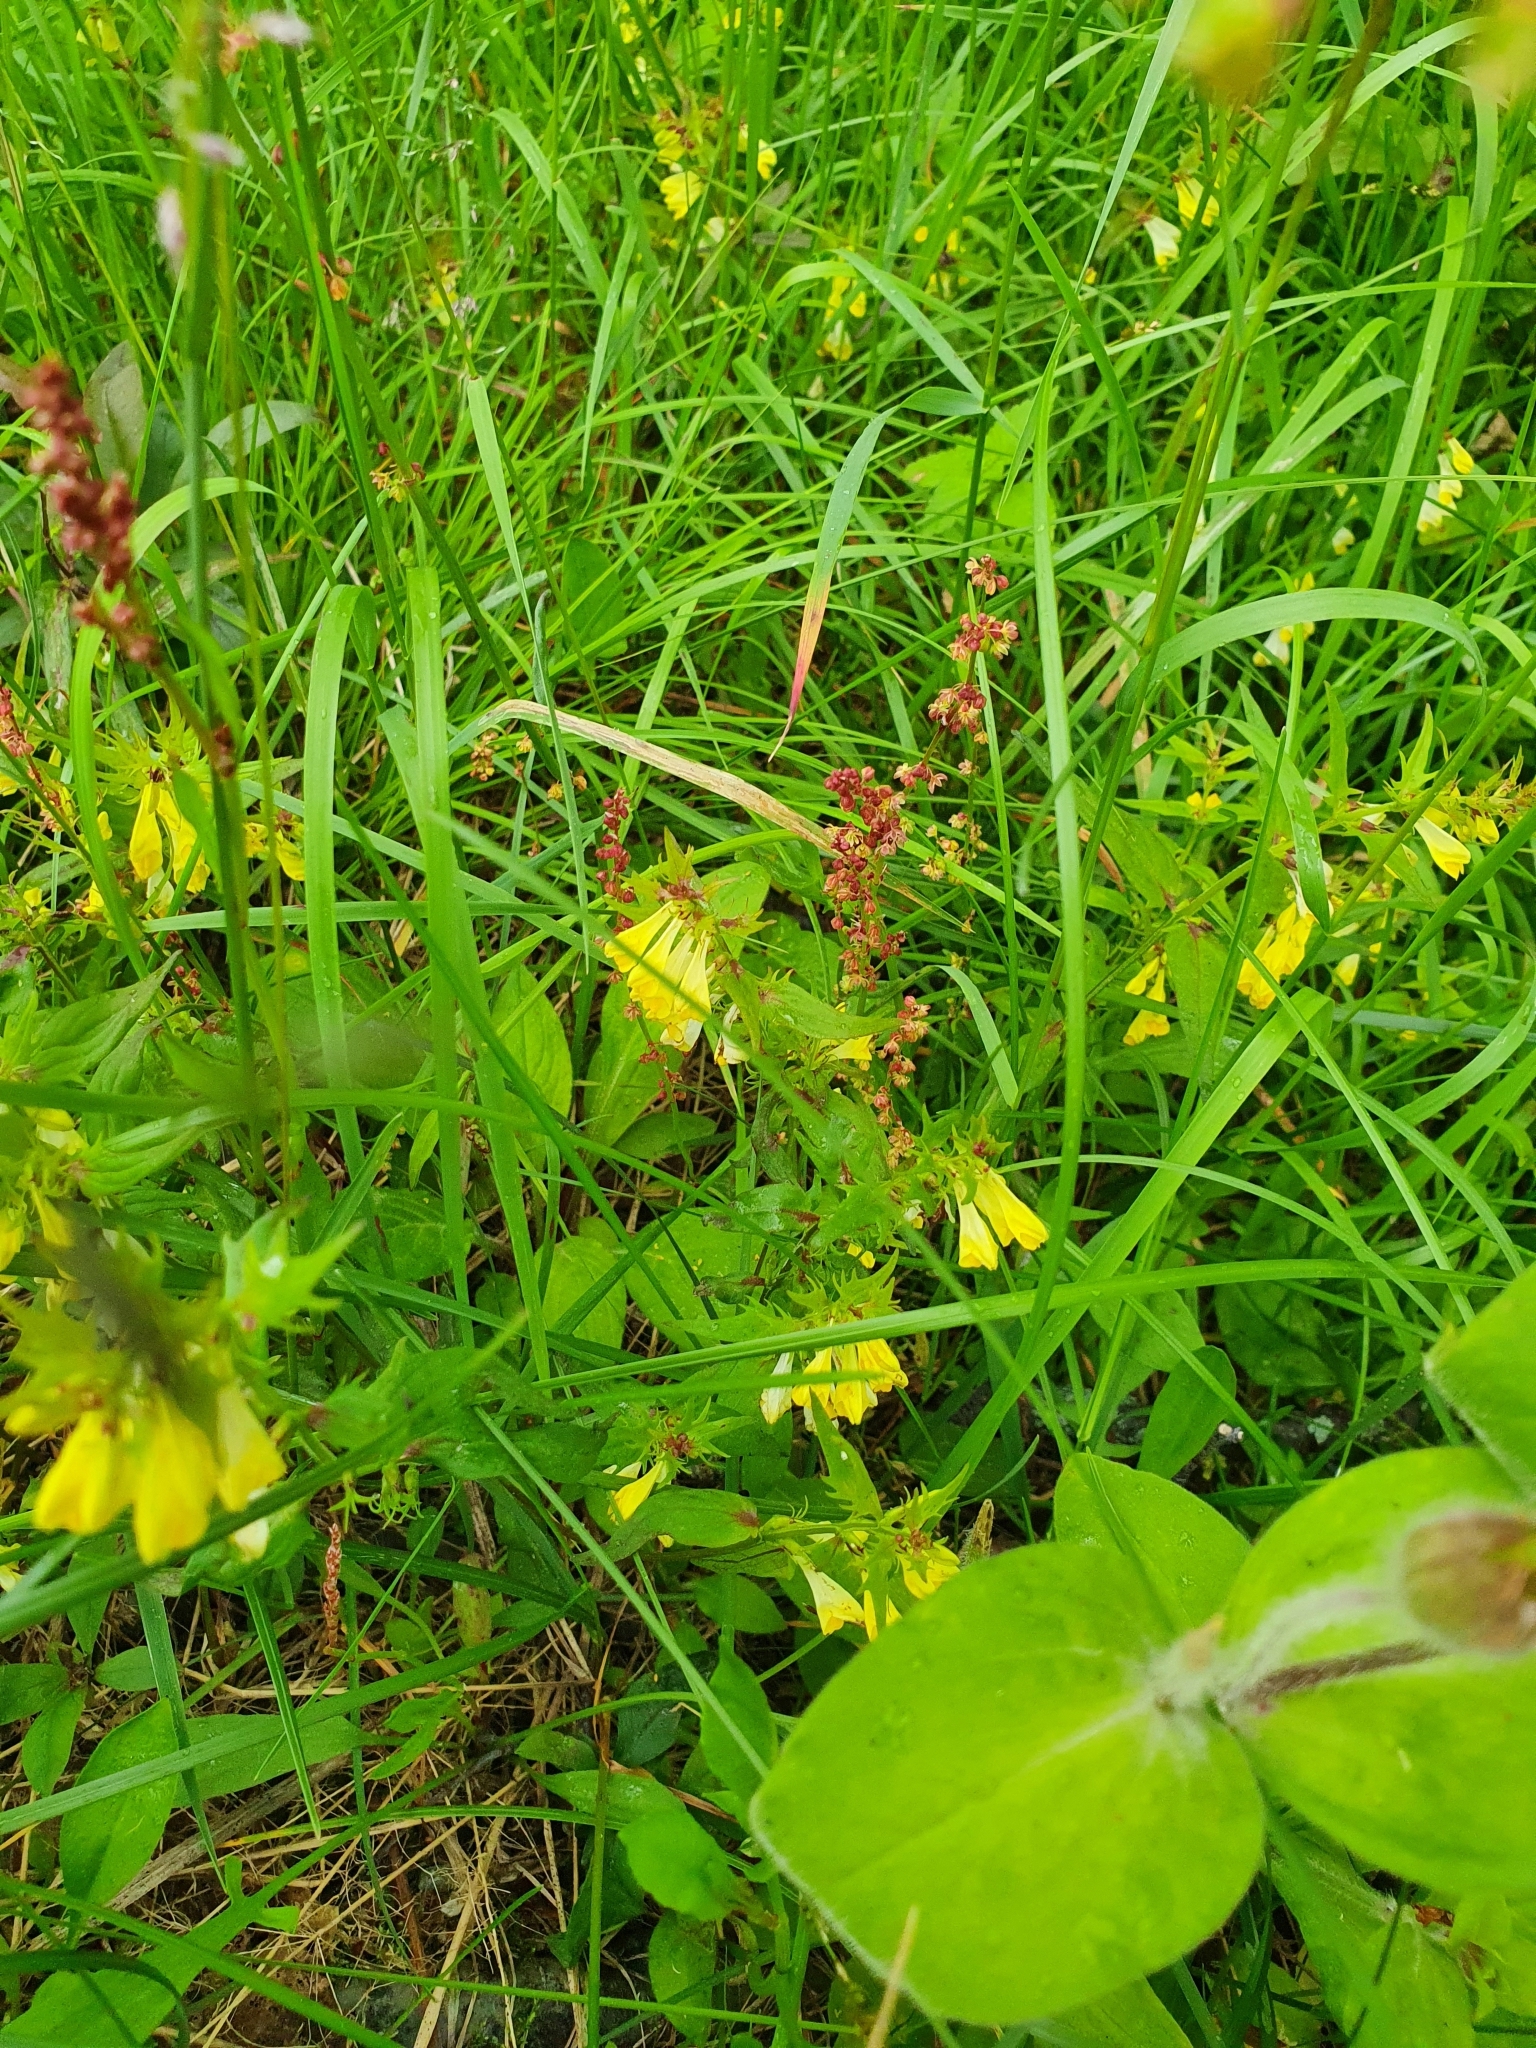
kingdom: Plantae
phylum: Tracheophyta
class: Magnoliopsida
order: Lamiales
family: Orobanchaceae
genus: Melampyrum
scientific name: Melampyrum pratense
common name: Common cow-wheat
